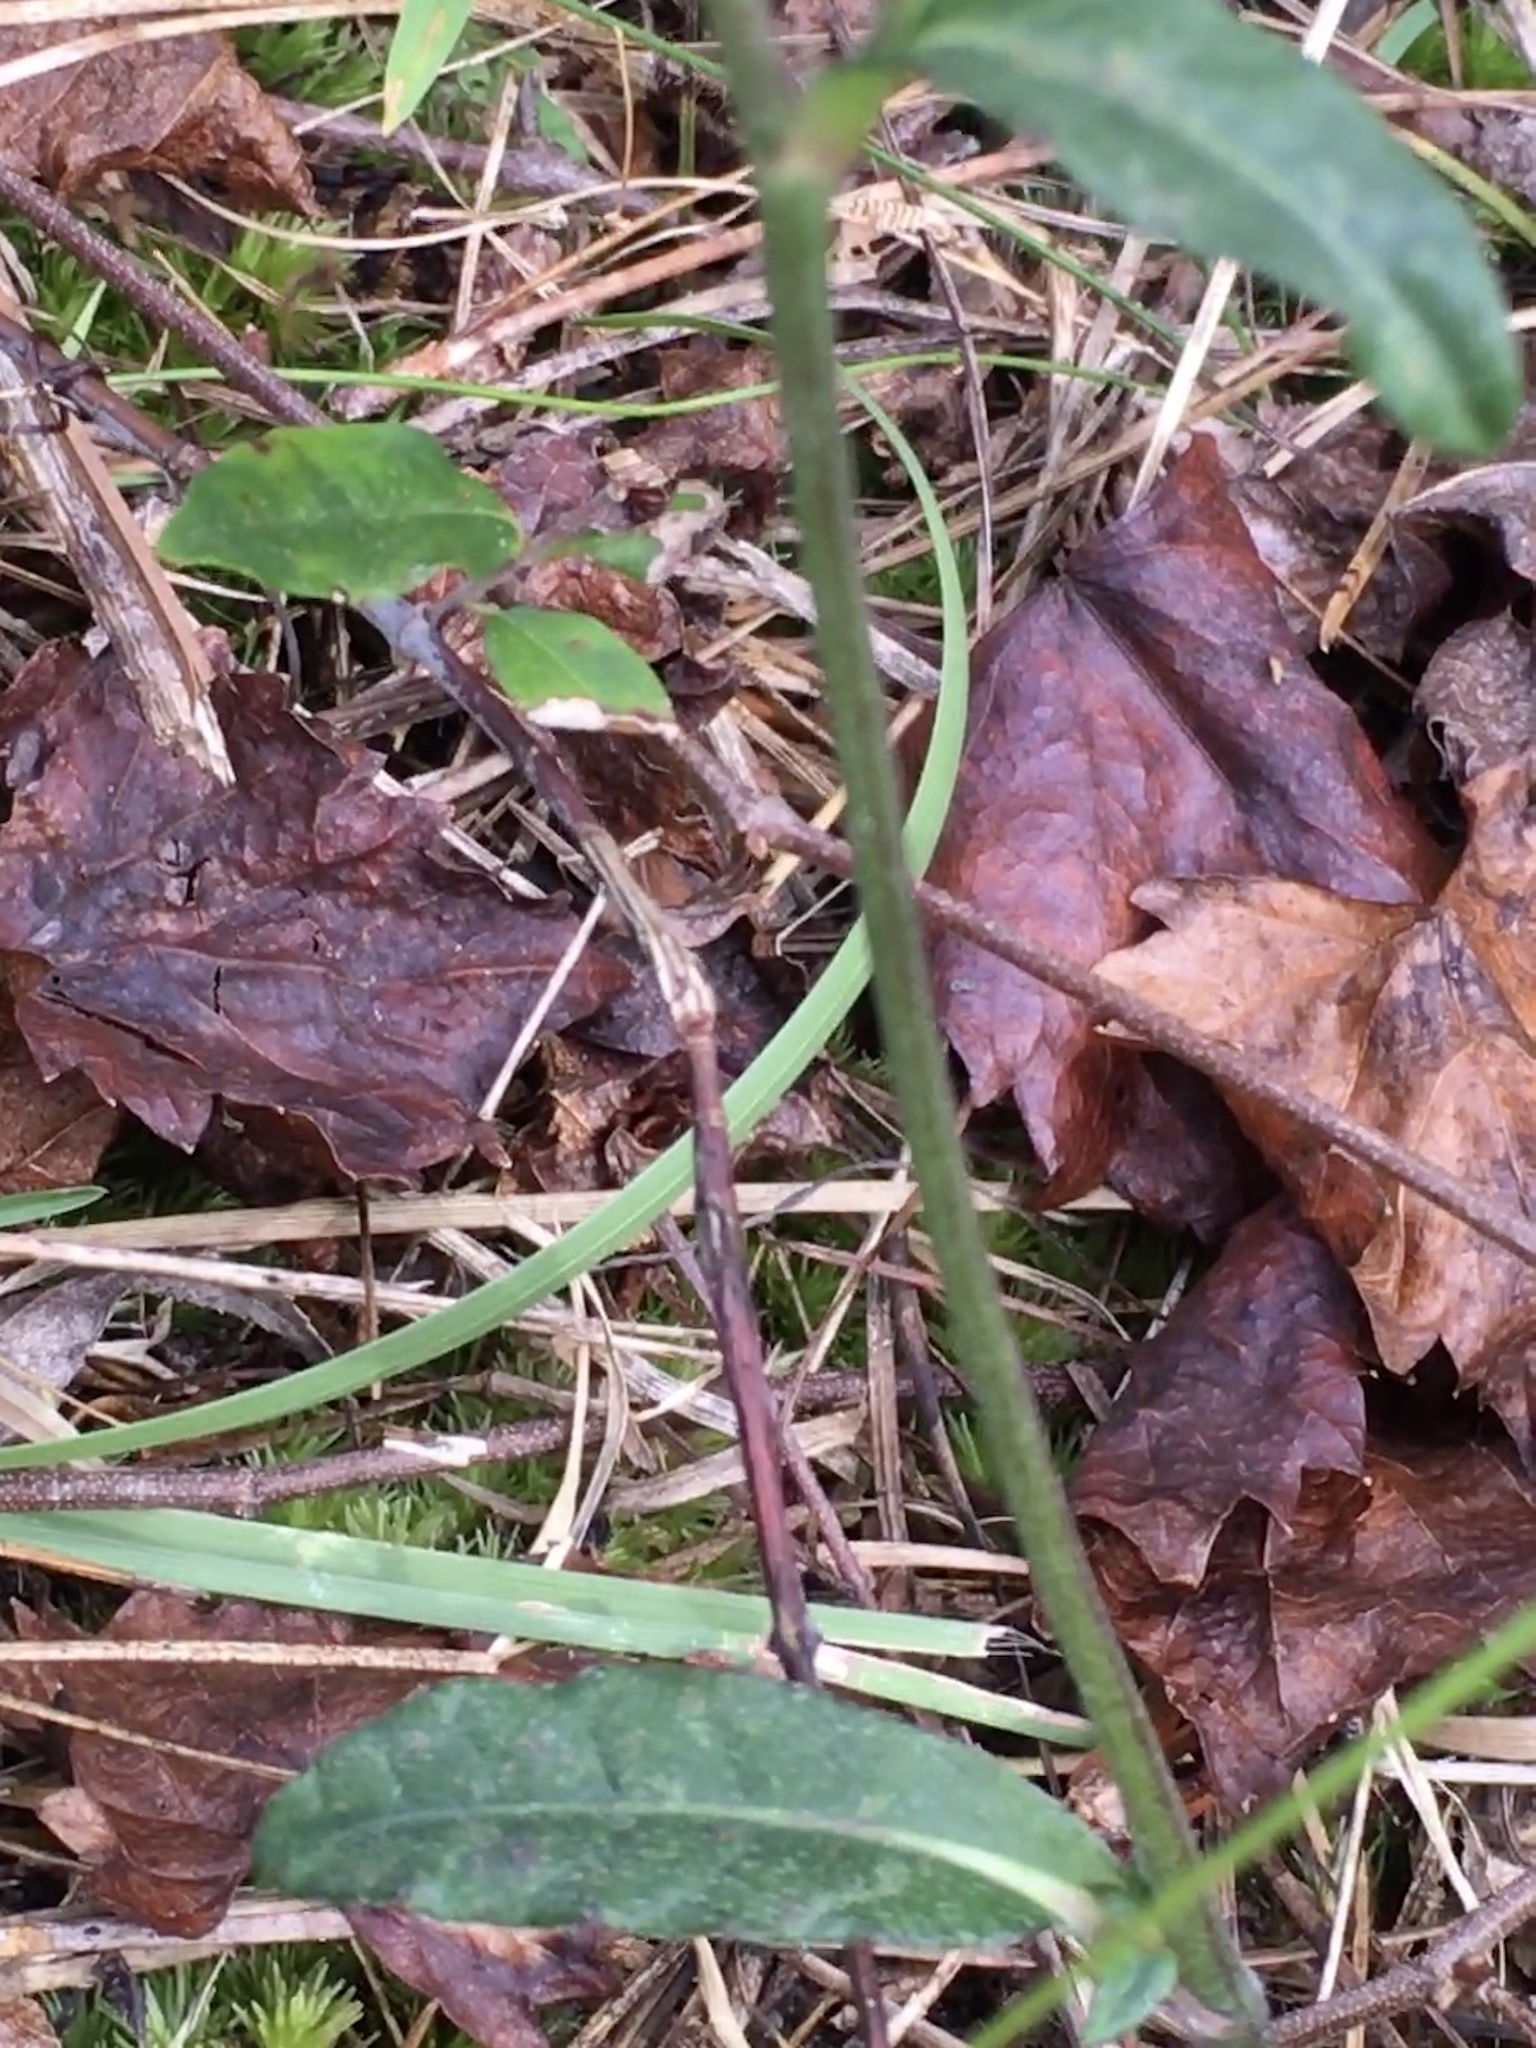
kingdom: Plantae
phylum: Tracheophyta
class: Magnoliopsida
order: Asterales
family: Asteraceae
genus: Elephantopus
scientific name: Elephantopus nudatus
